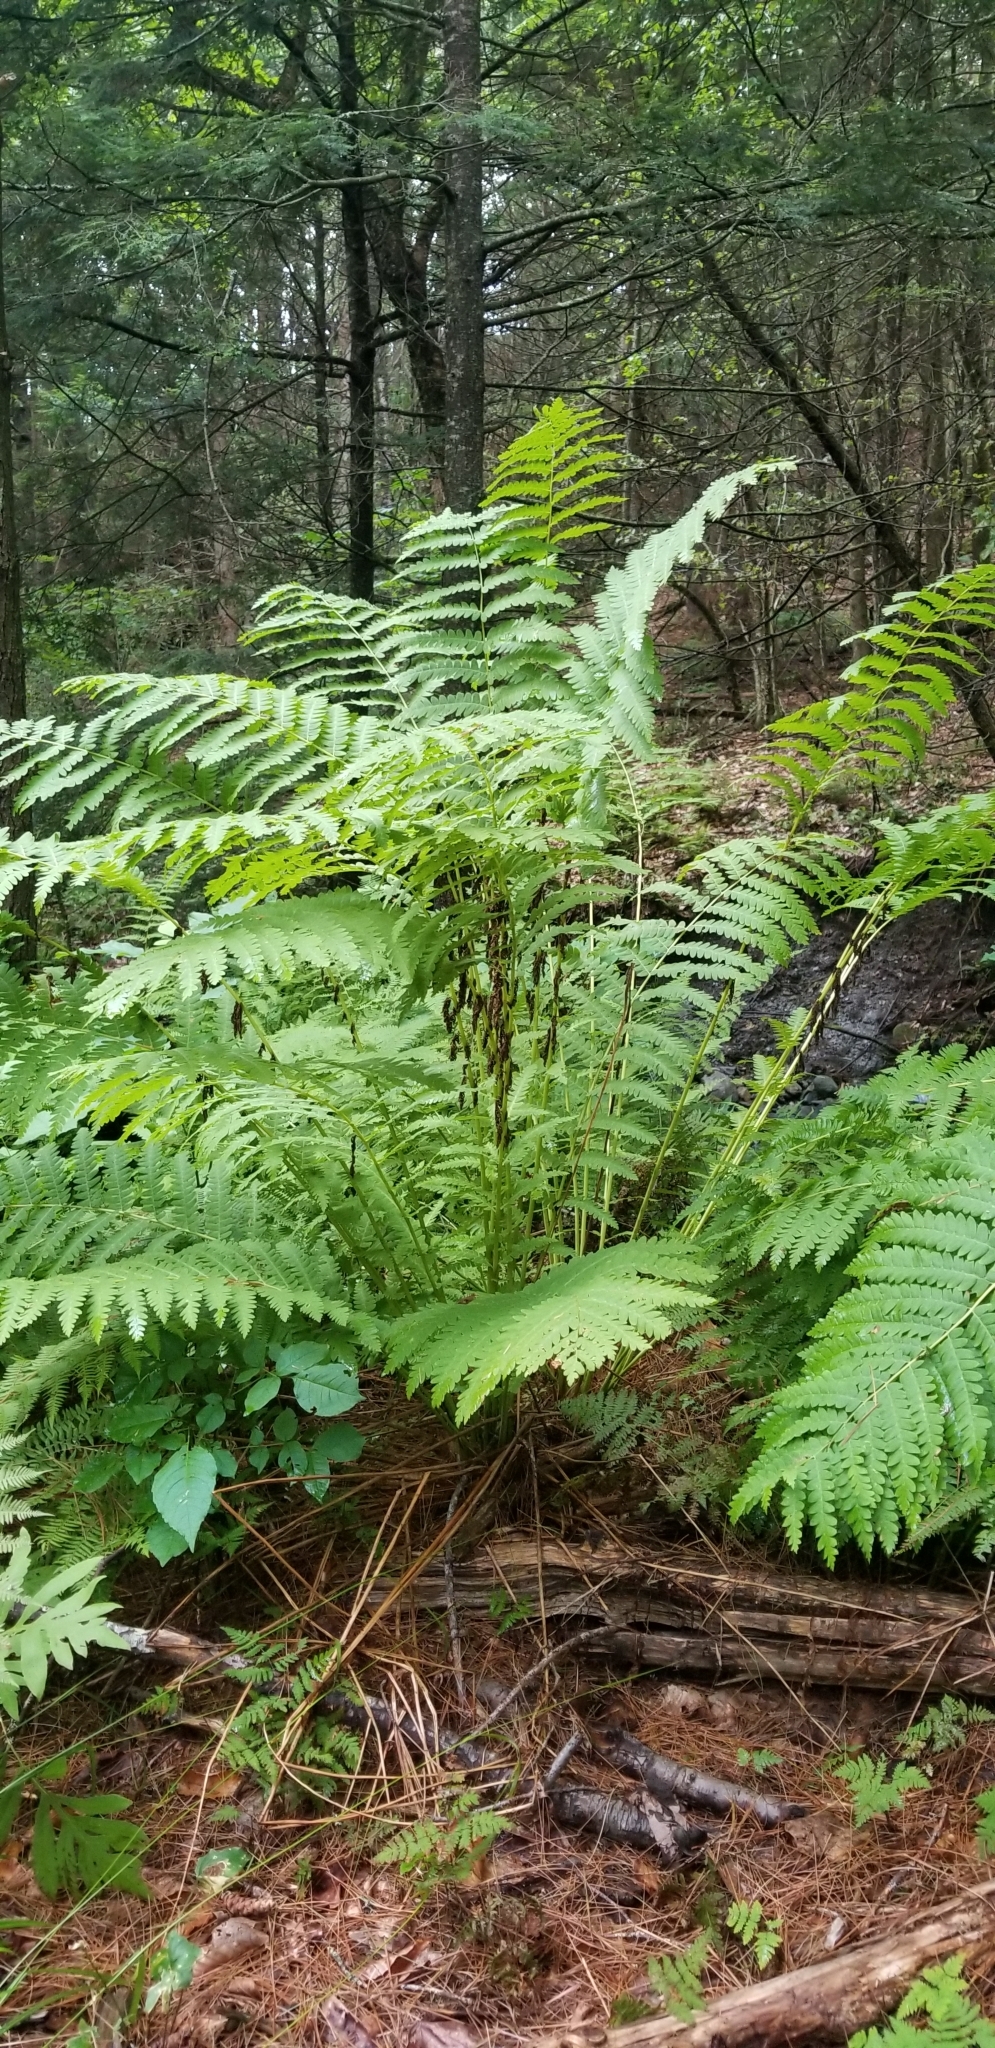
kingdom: Plantae
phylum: Tracheophyta
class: Polypodiopsida
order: Osmundales
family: Osmundaceae
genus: Claytosmunda
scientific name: Claytosmunda claytoniana
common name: Clayton's fern
